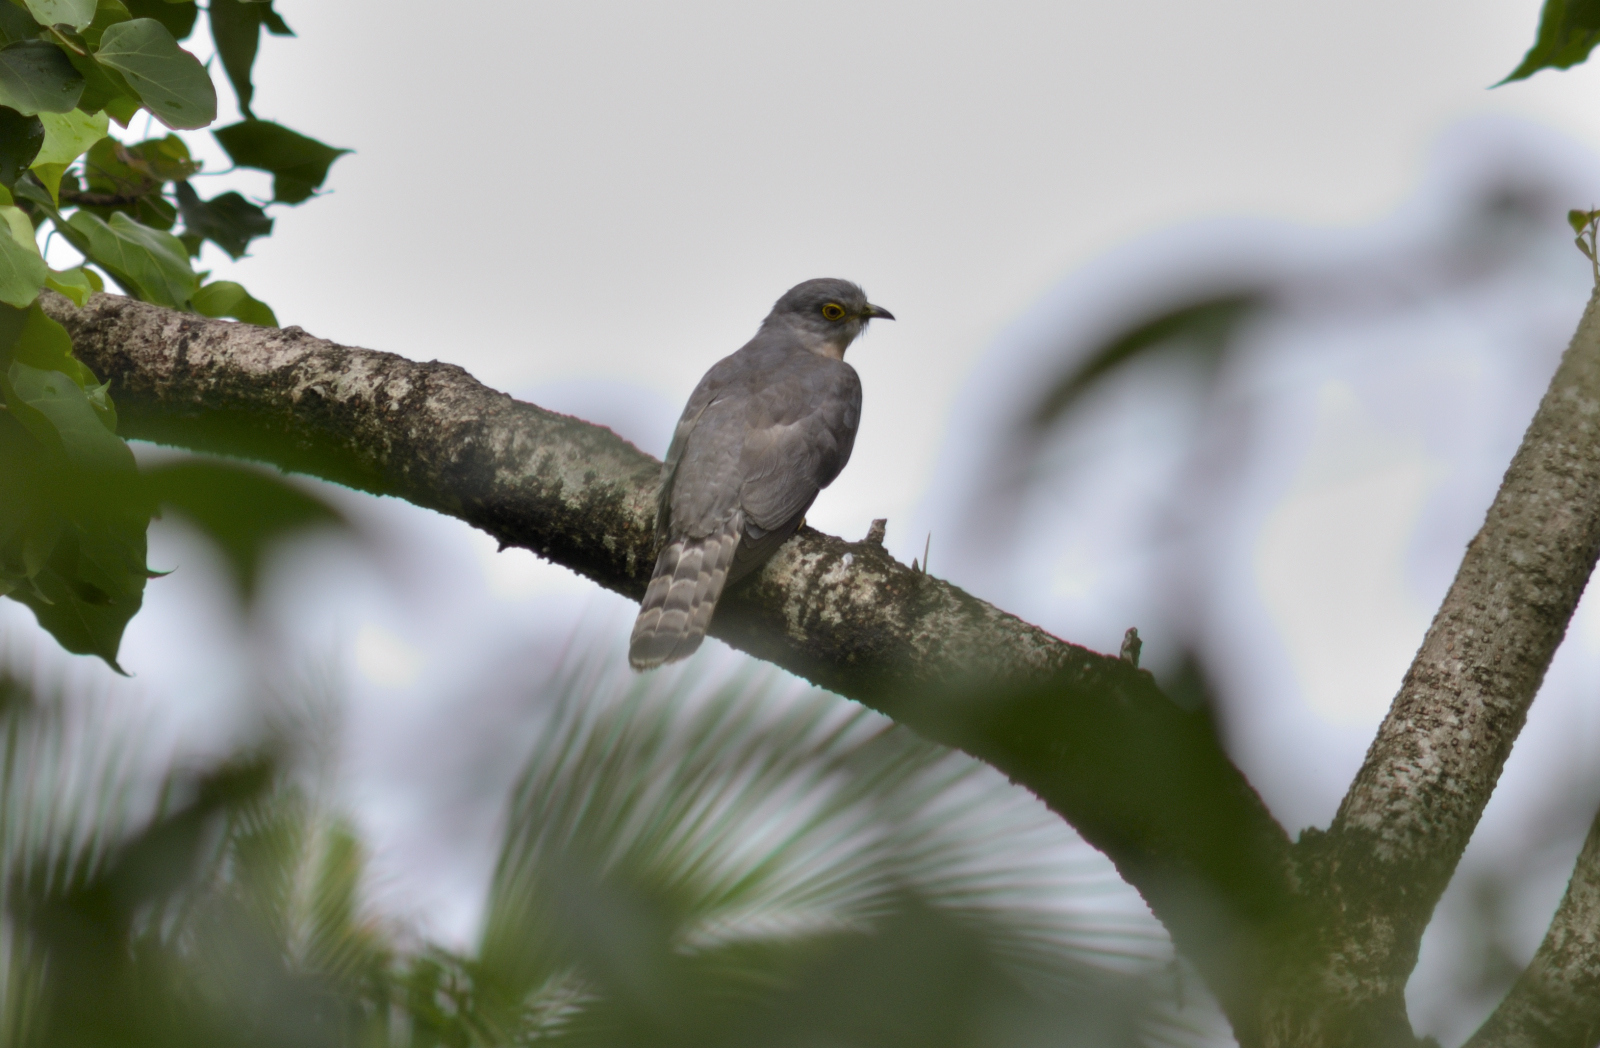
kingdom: Animalia
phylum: Chordata
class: Aves
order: Cuculiformes
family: Cuculidae
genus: Cuculus
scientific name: Cuculus varius
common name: Common hawk cuckoo
